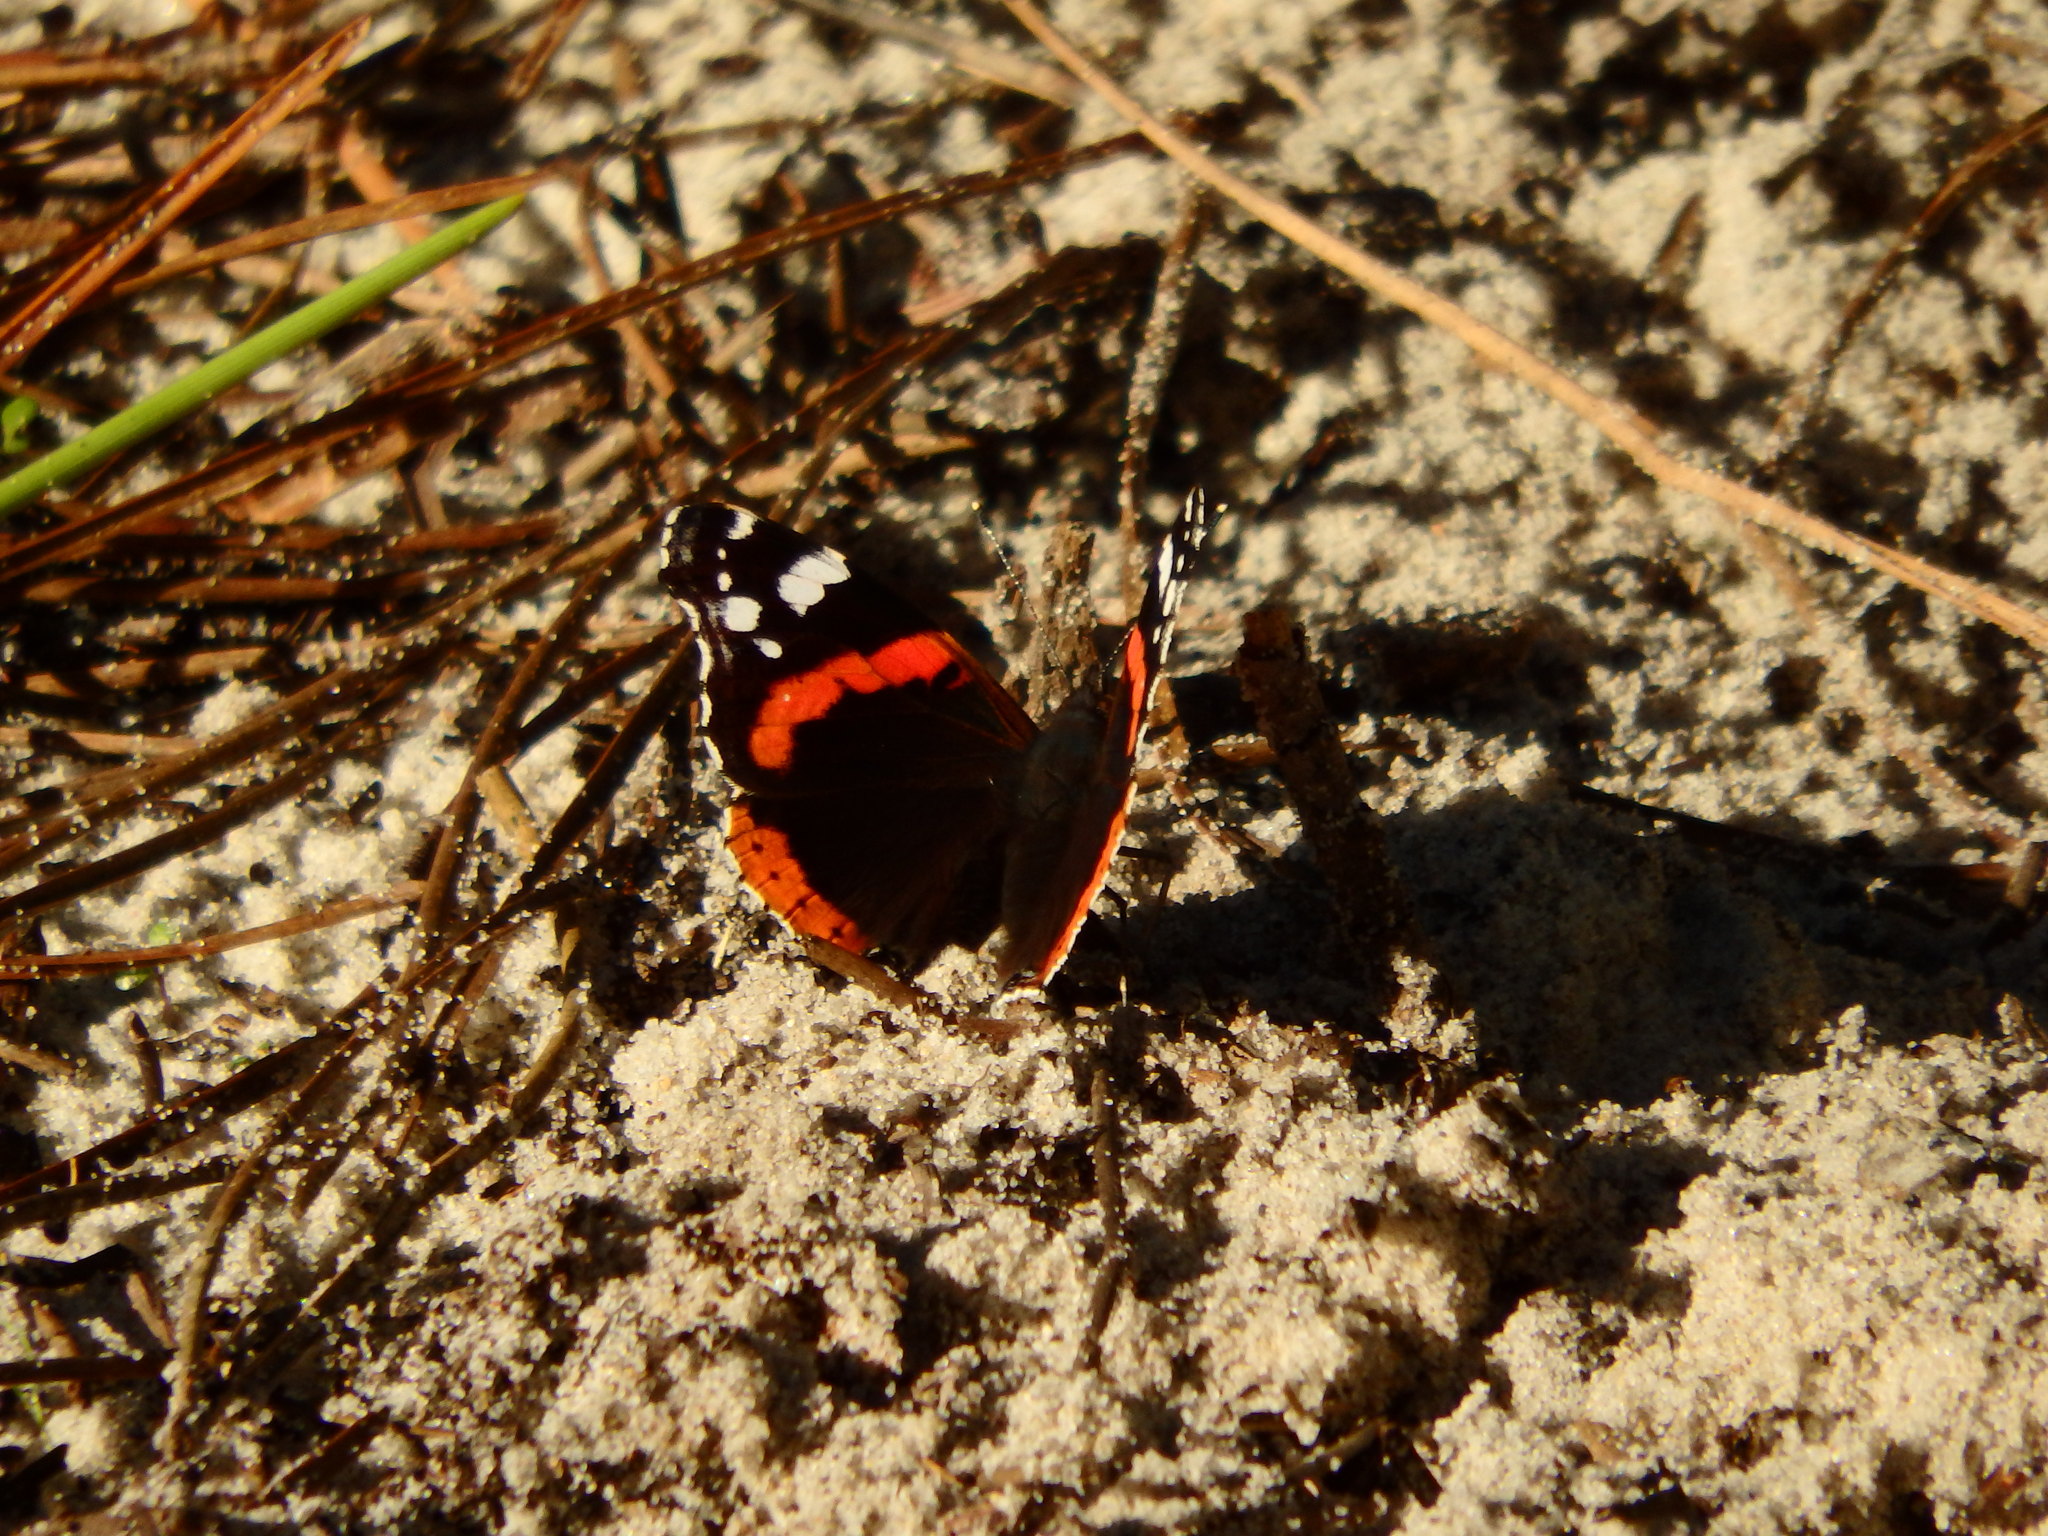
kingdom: Animalia
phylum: Arthropoda
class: Insecta
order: Lepidoptera
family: Nymphalidae
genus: Vanessa
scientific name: Vanessa atalanta
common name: Red admiral
